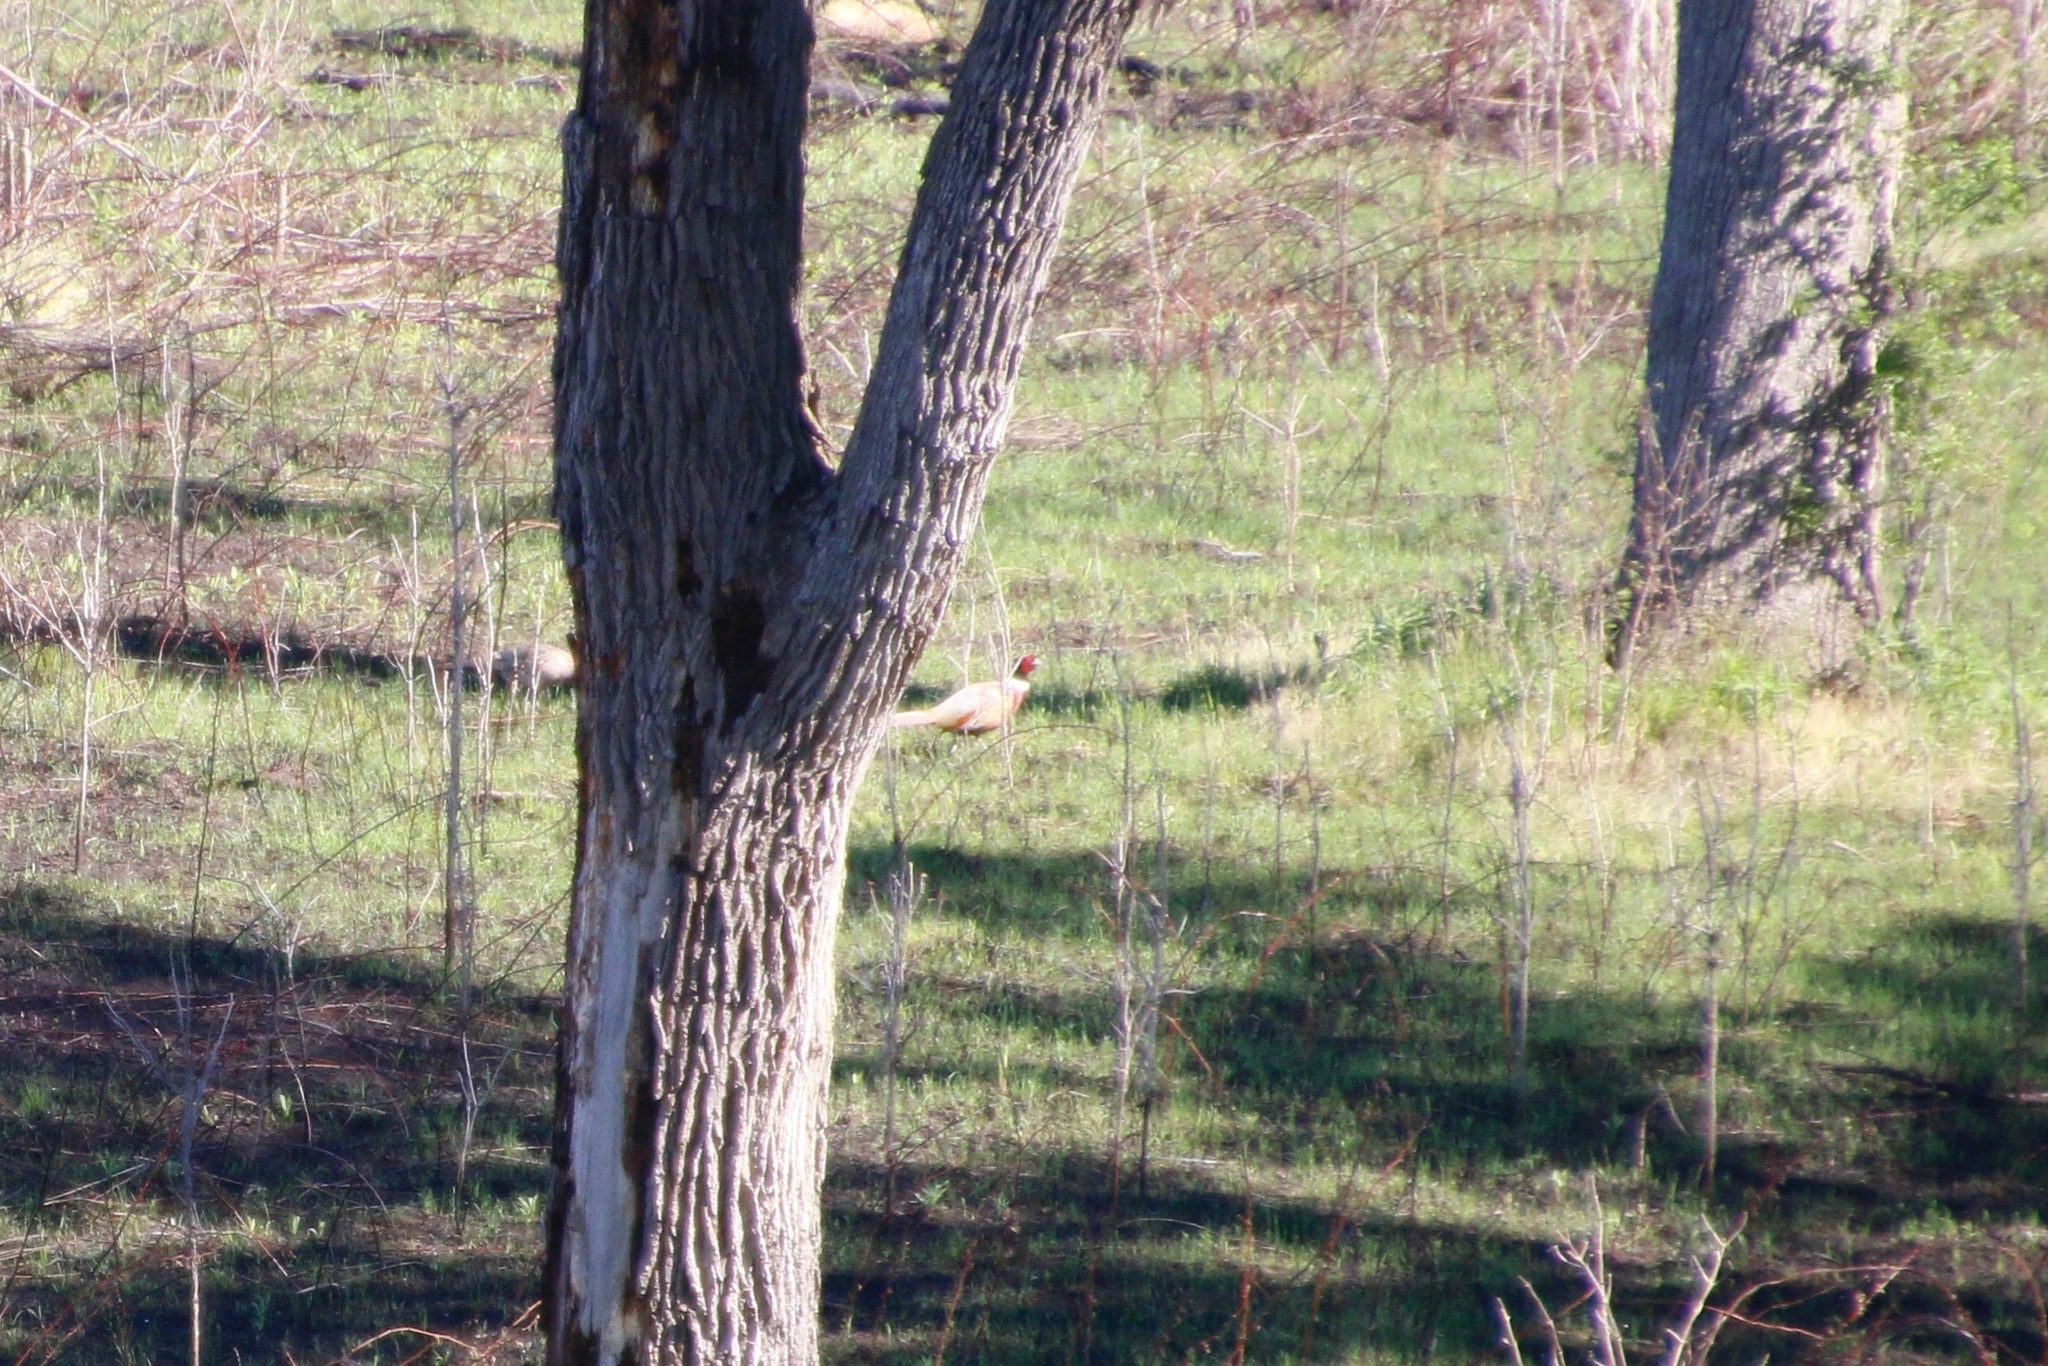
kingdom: Animalia
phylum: Chordata
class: Aves
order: Galliformes
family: Phasianidae
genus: Phasianus
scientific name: Phasianus colchicus
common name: Common pheasant
